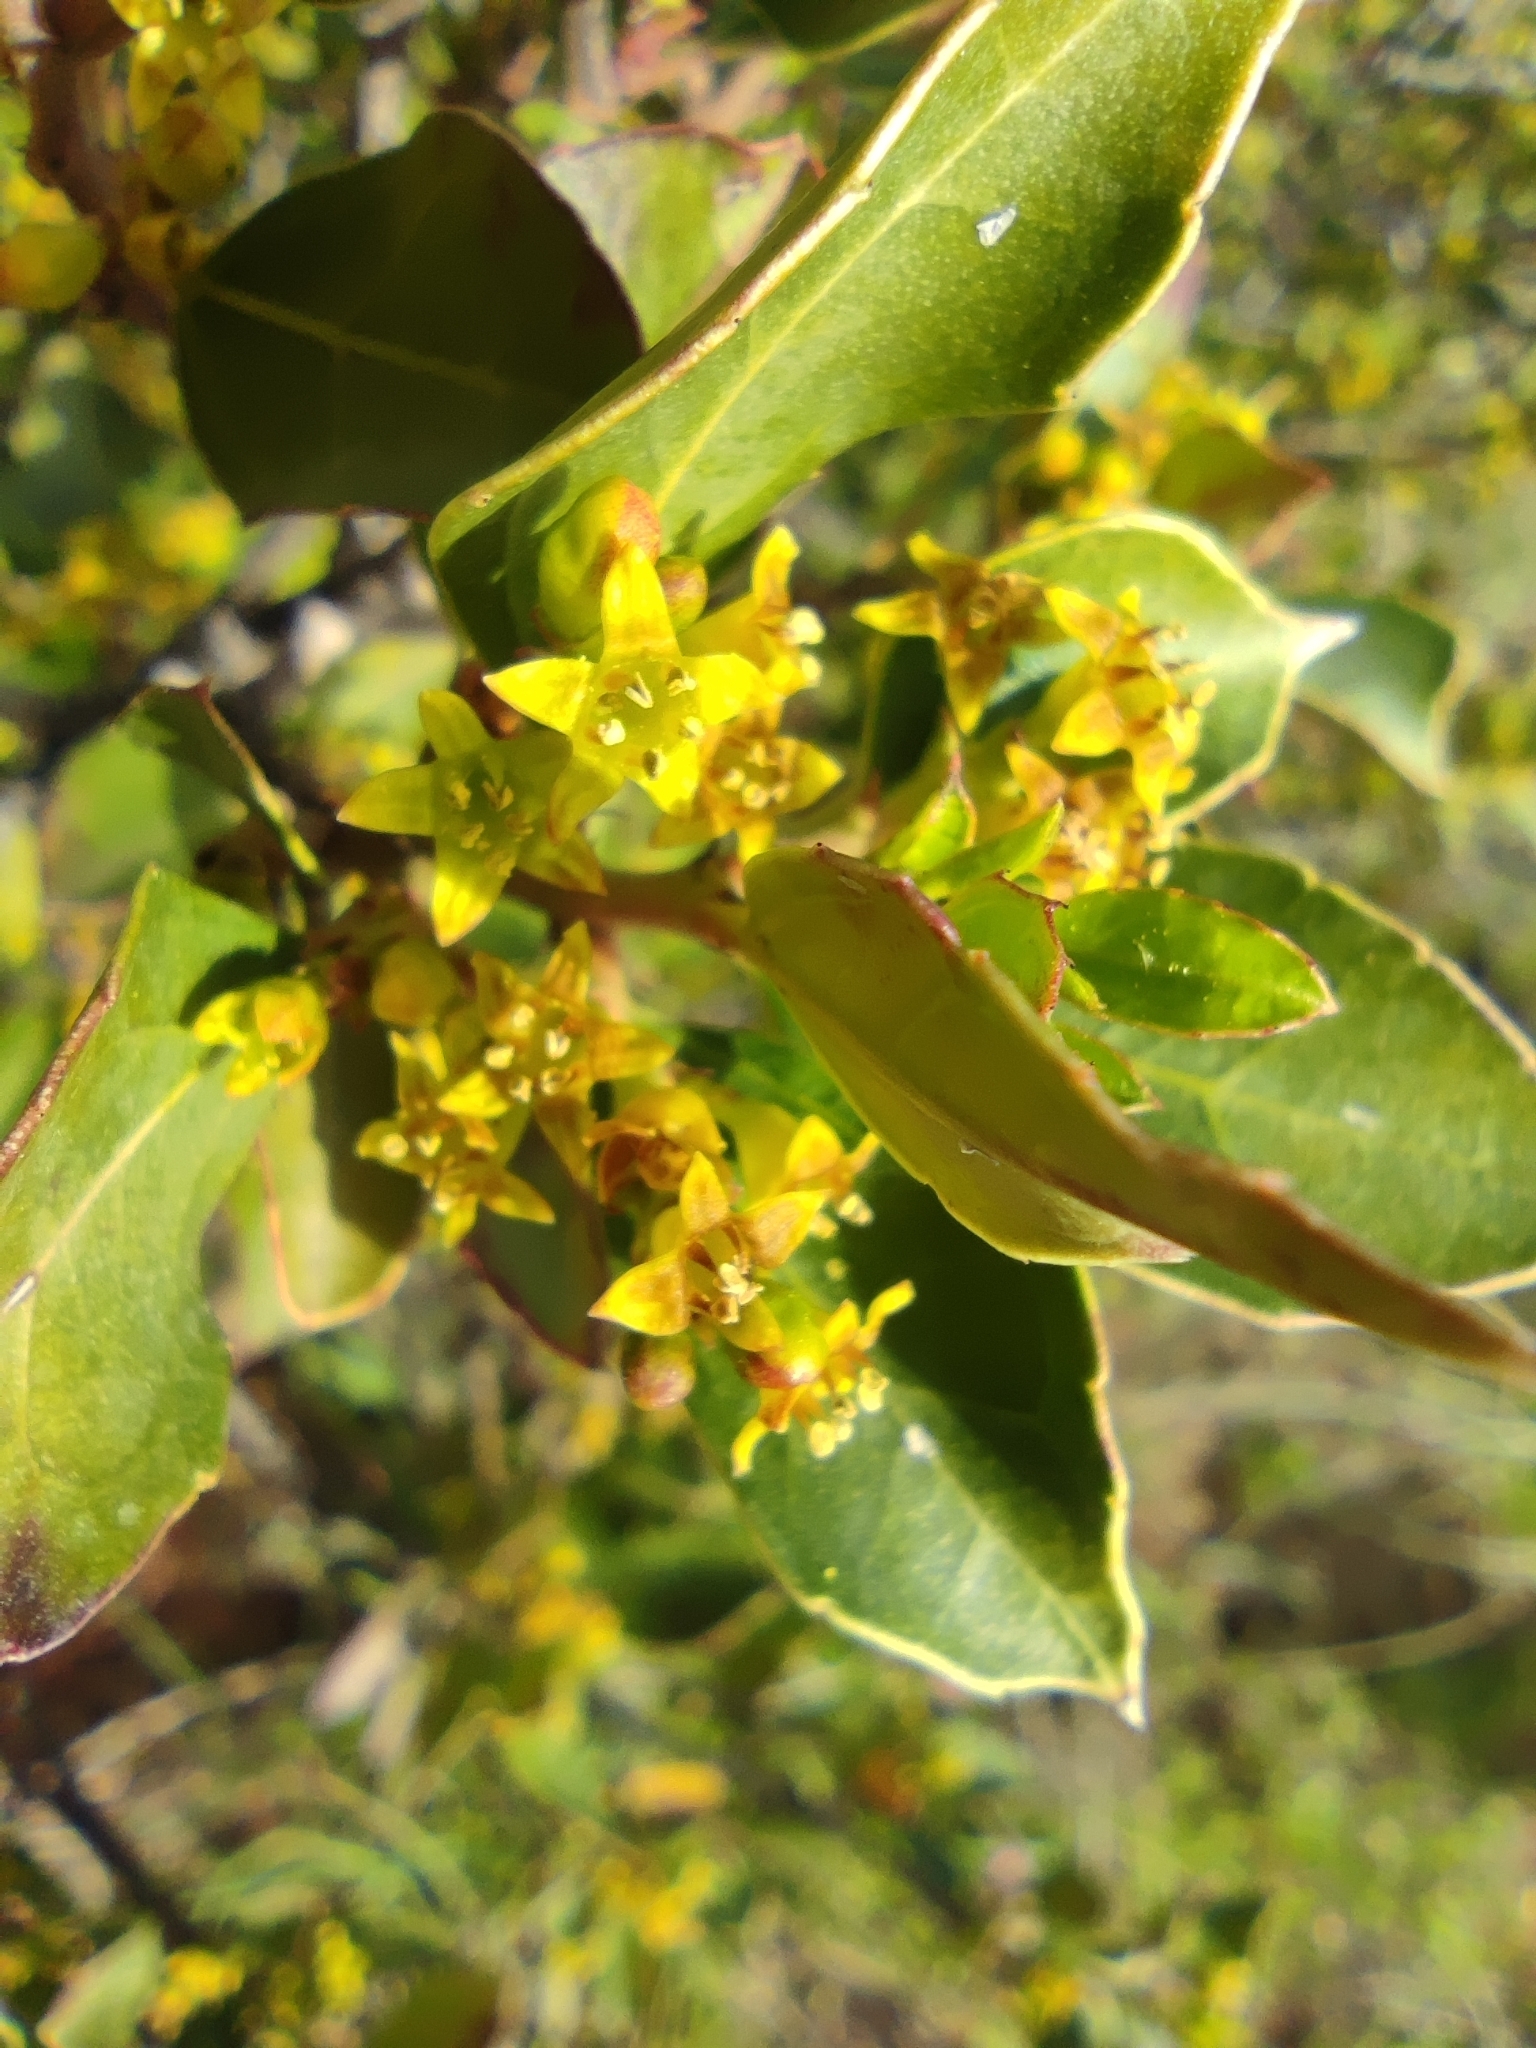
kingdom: Plantae
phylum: Tracheophyta
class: Magnoliopsida
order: Rosales
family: Rhamnaceae
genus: Rhamnus
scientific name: Rhamnus alaternus
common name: Mediterranean buckthorn
